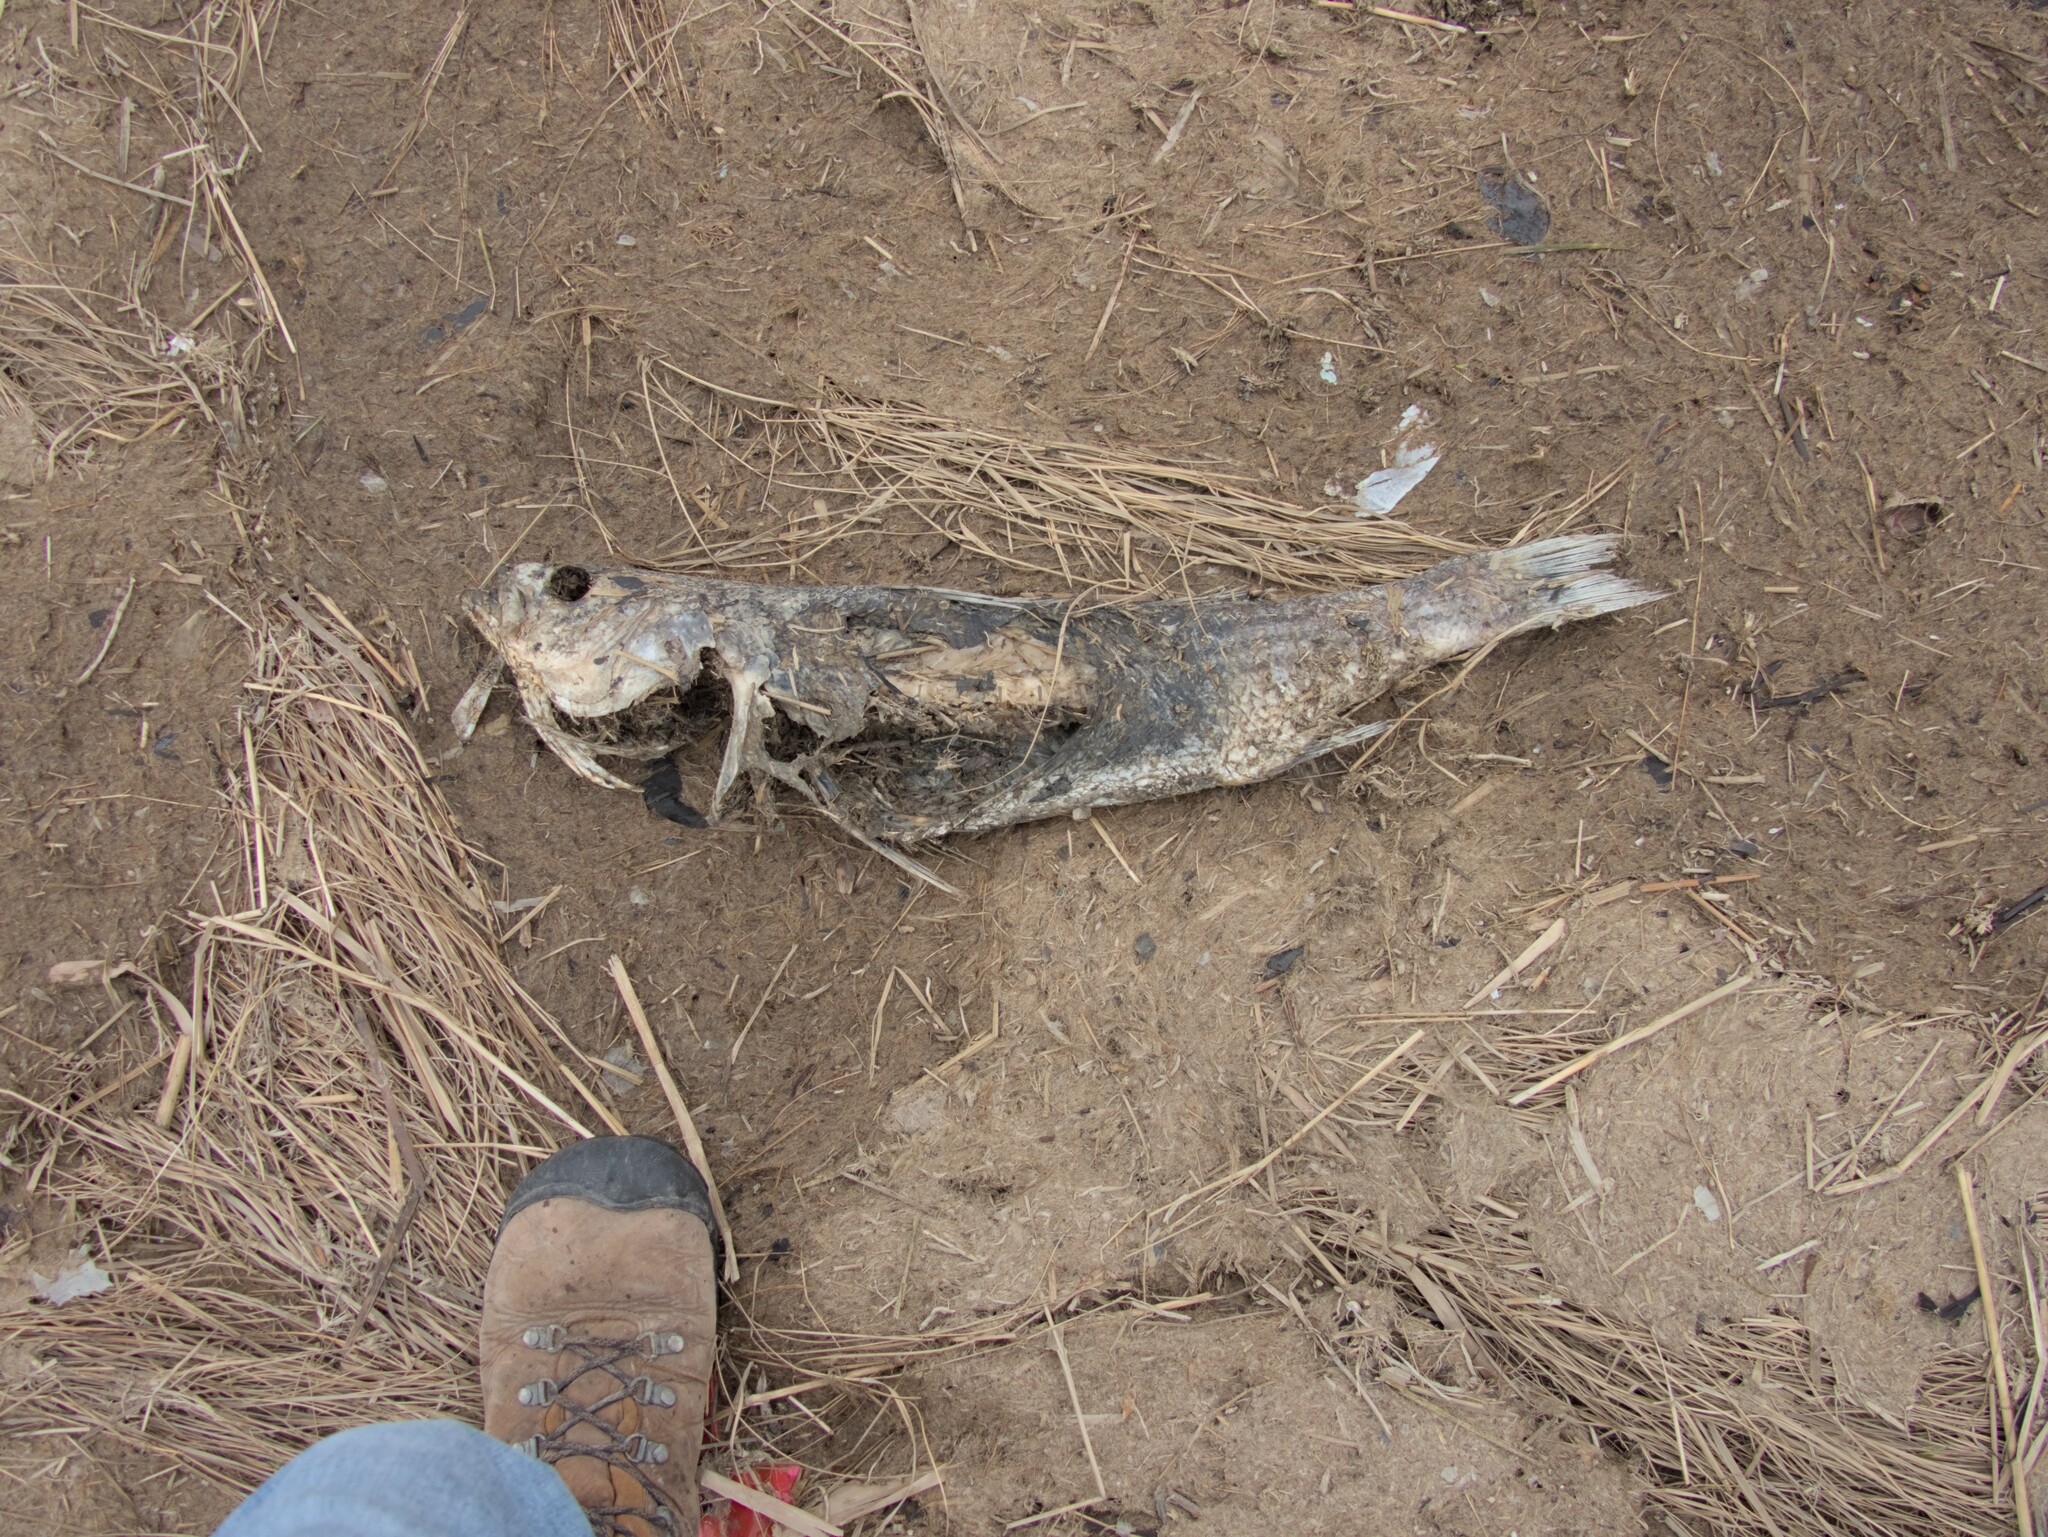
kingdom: Animalia
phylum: Chordata
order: Perciformes
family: Moronidae
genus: Morone
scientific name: Morone saxatilis
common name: Striped bass
